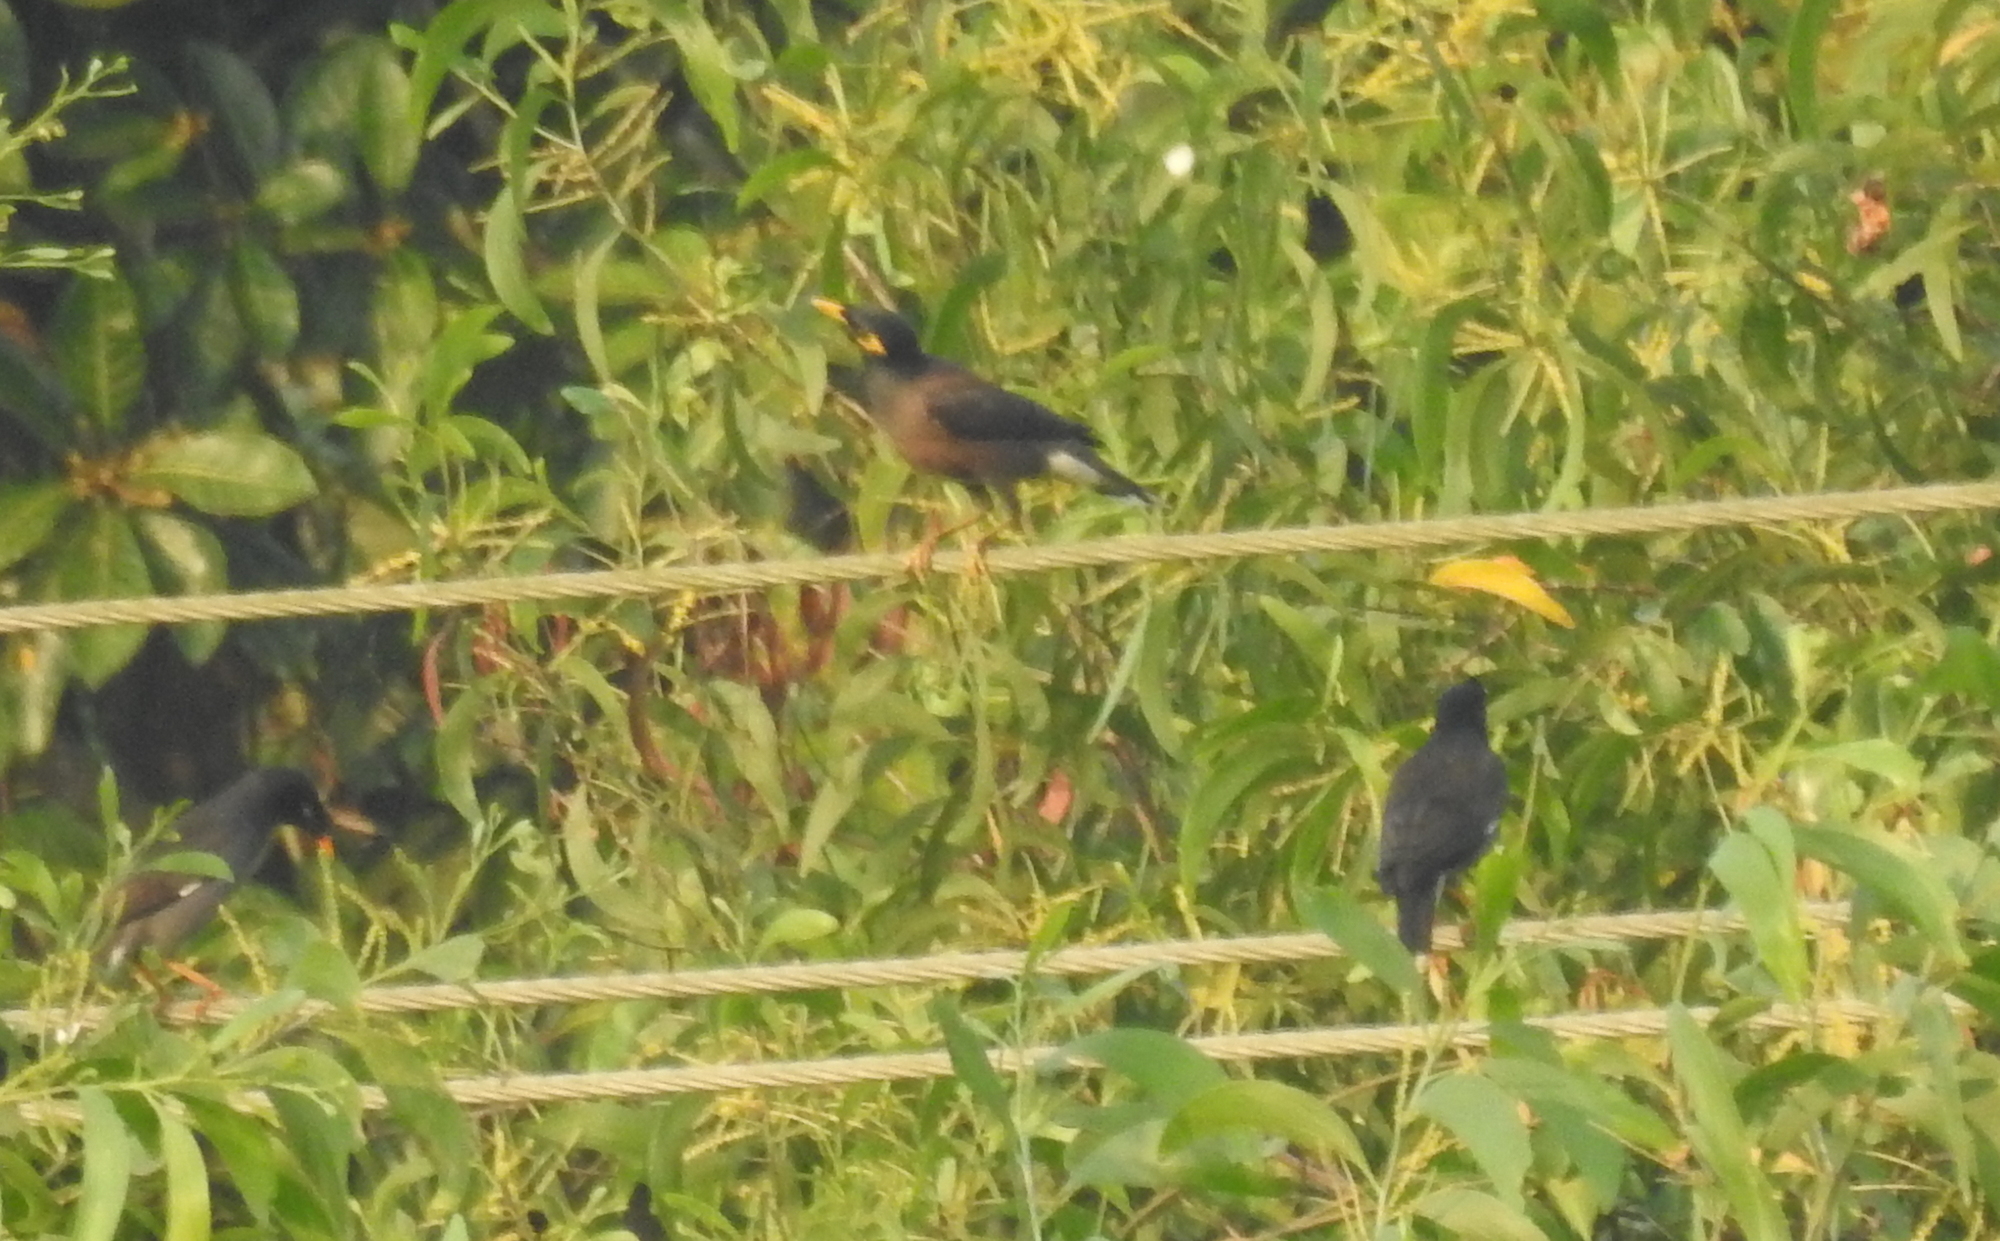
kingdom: Animalia
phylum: Chordata
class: Aves
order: Passeriformes
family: Sturnidae
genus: Acridotheres
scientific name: Acridotheres tristis
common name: Common myna
